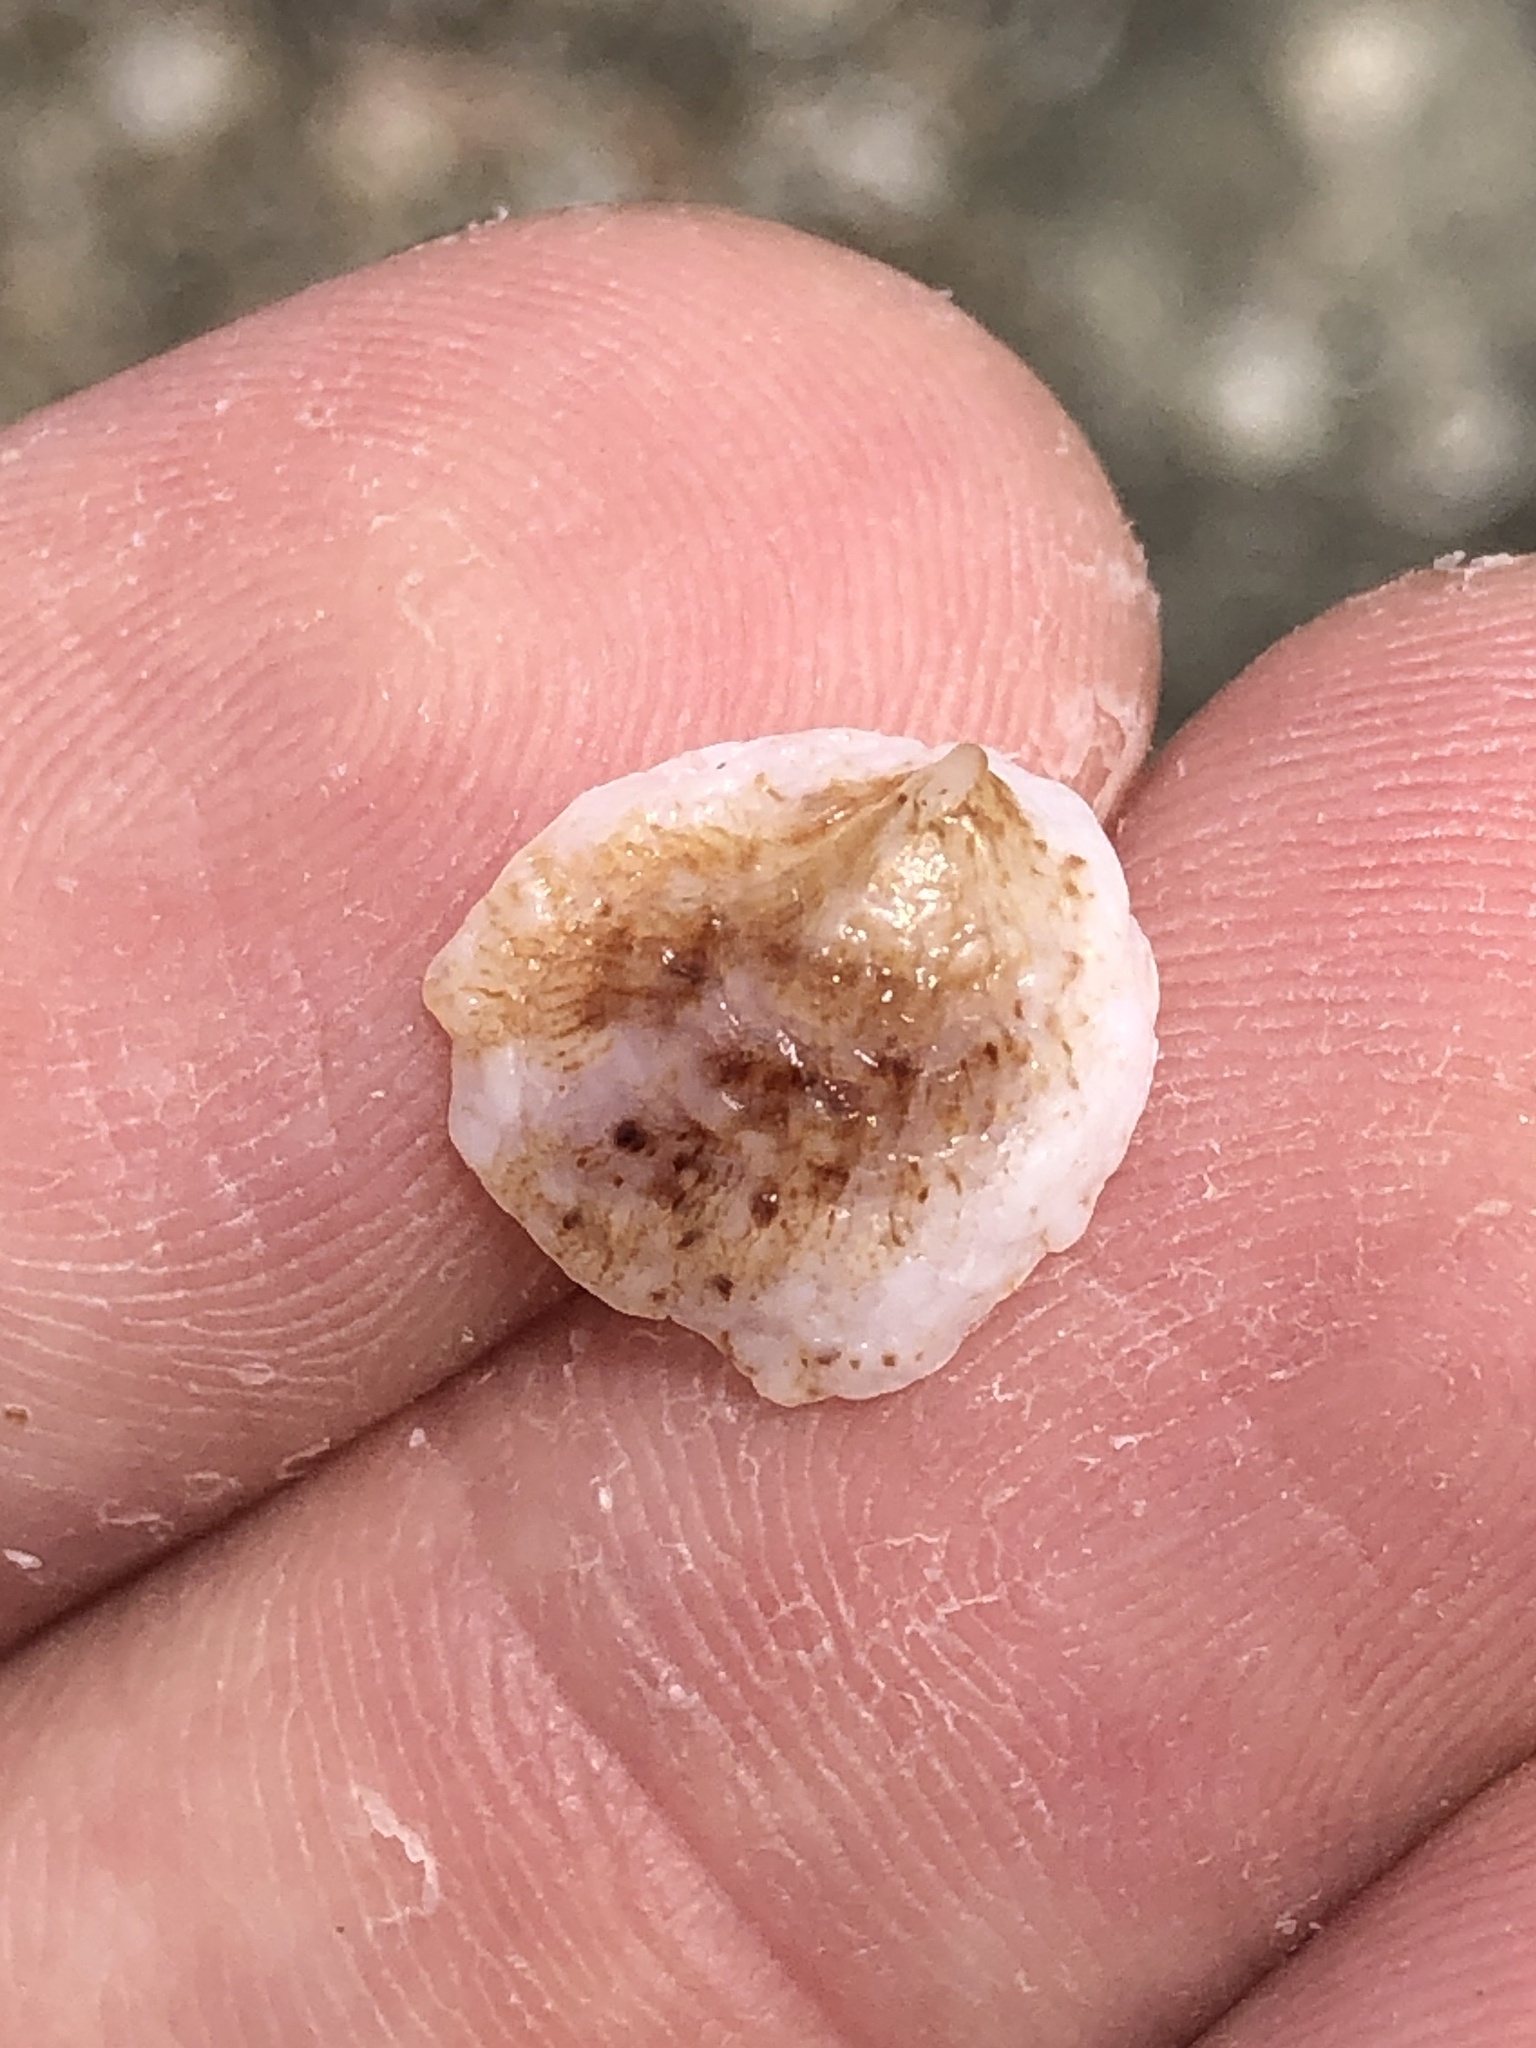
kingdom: Animalia
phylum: Mollusca
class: Gastropoda
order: Littorinimorpha
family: Calyptraeidae
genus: Crepipatella
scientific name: Crepipatella lingulata
